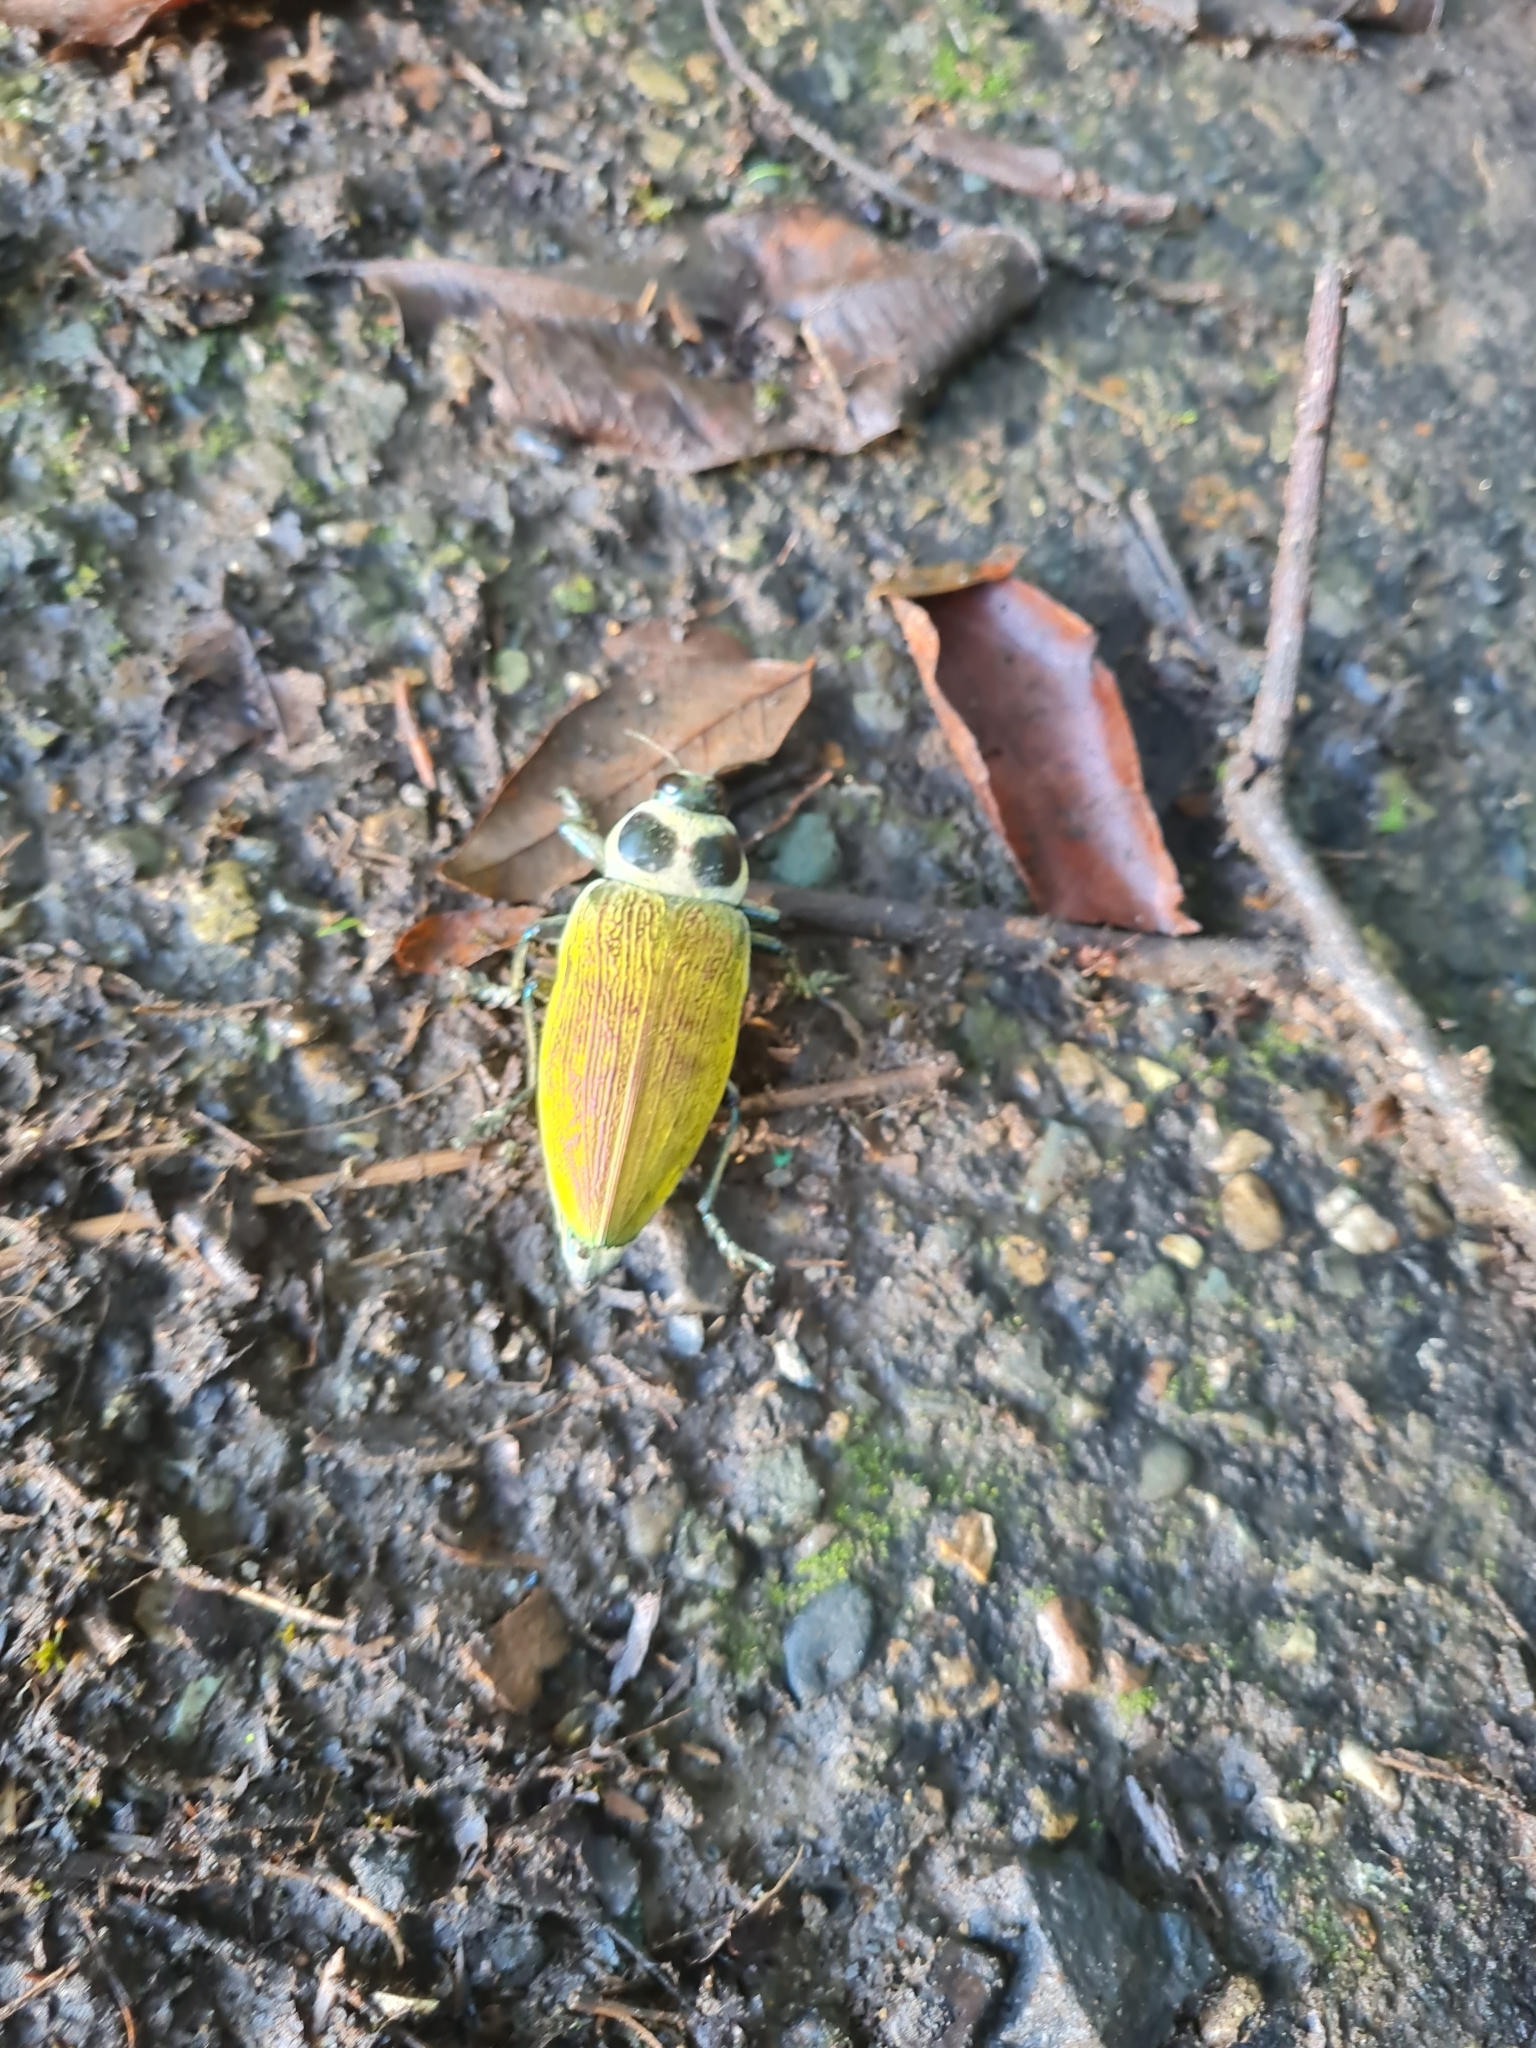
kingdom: Animalia
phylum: Arthropoda
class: Insecta
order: Coleoptera
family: Buprestidae
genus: Euchroma
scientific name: Euchroma giganteum
